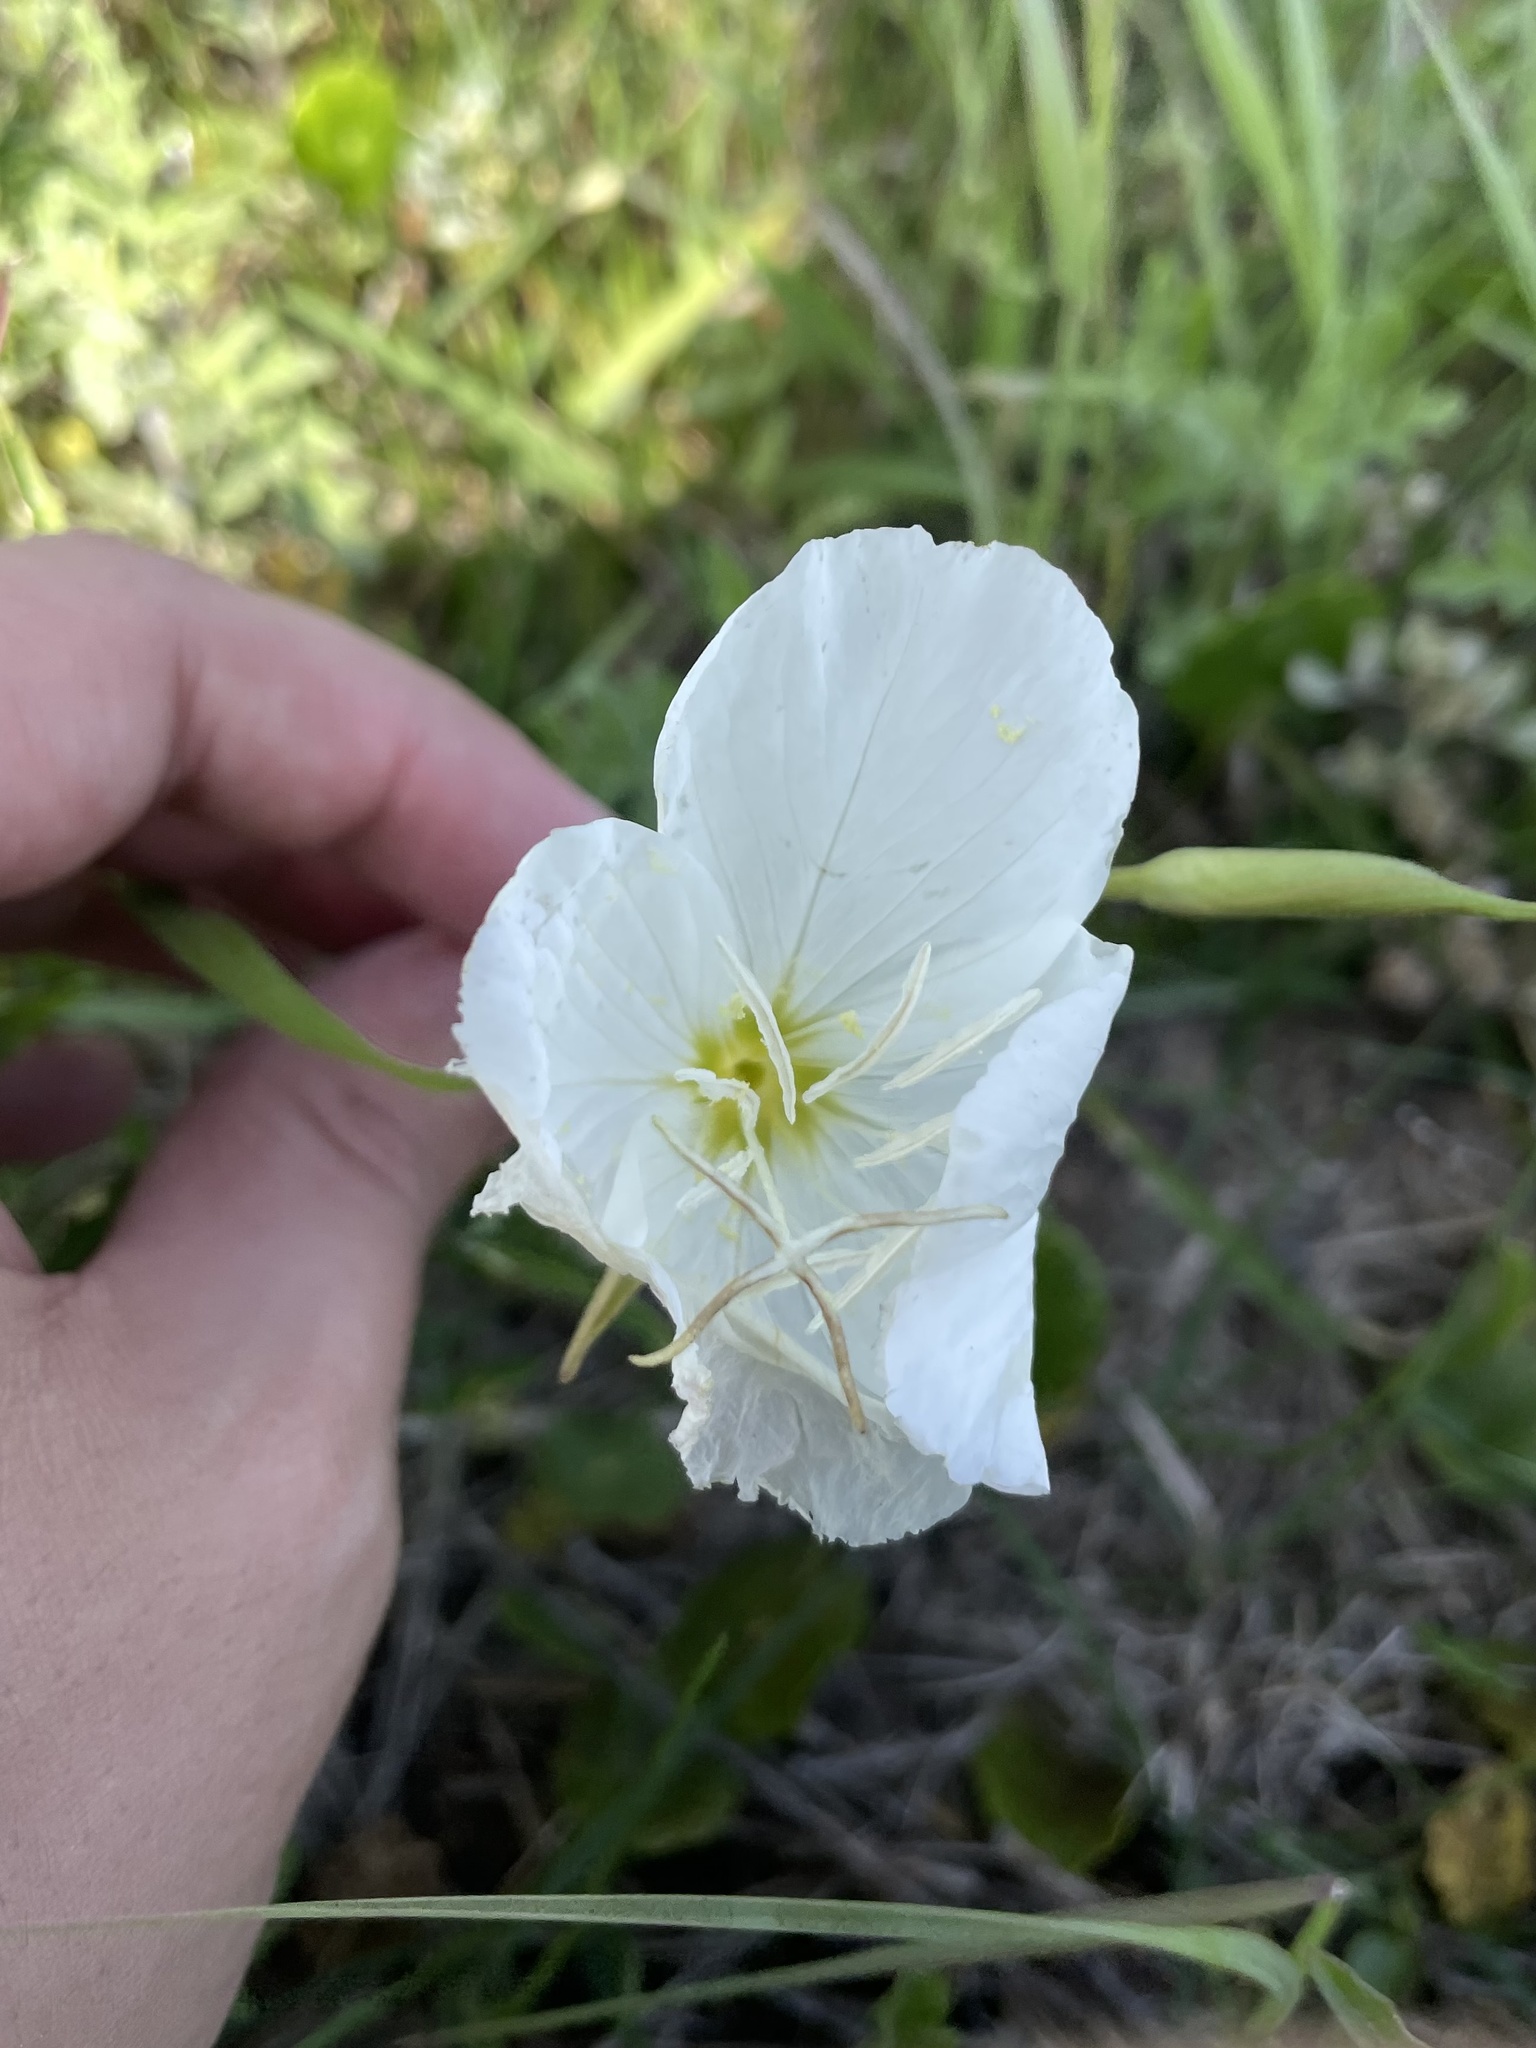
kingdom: Plantae
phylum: Tracheophyta
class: Magnoliopsida
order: Myrtales
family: Onagraceae
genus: Oenothera
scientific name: Oenothera speciosa
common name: White evening-primrose
